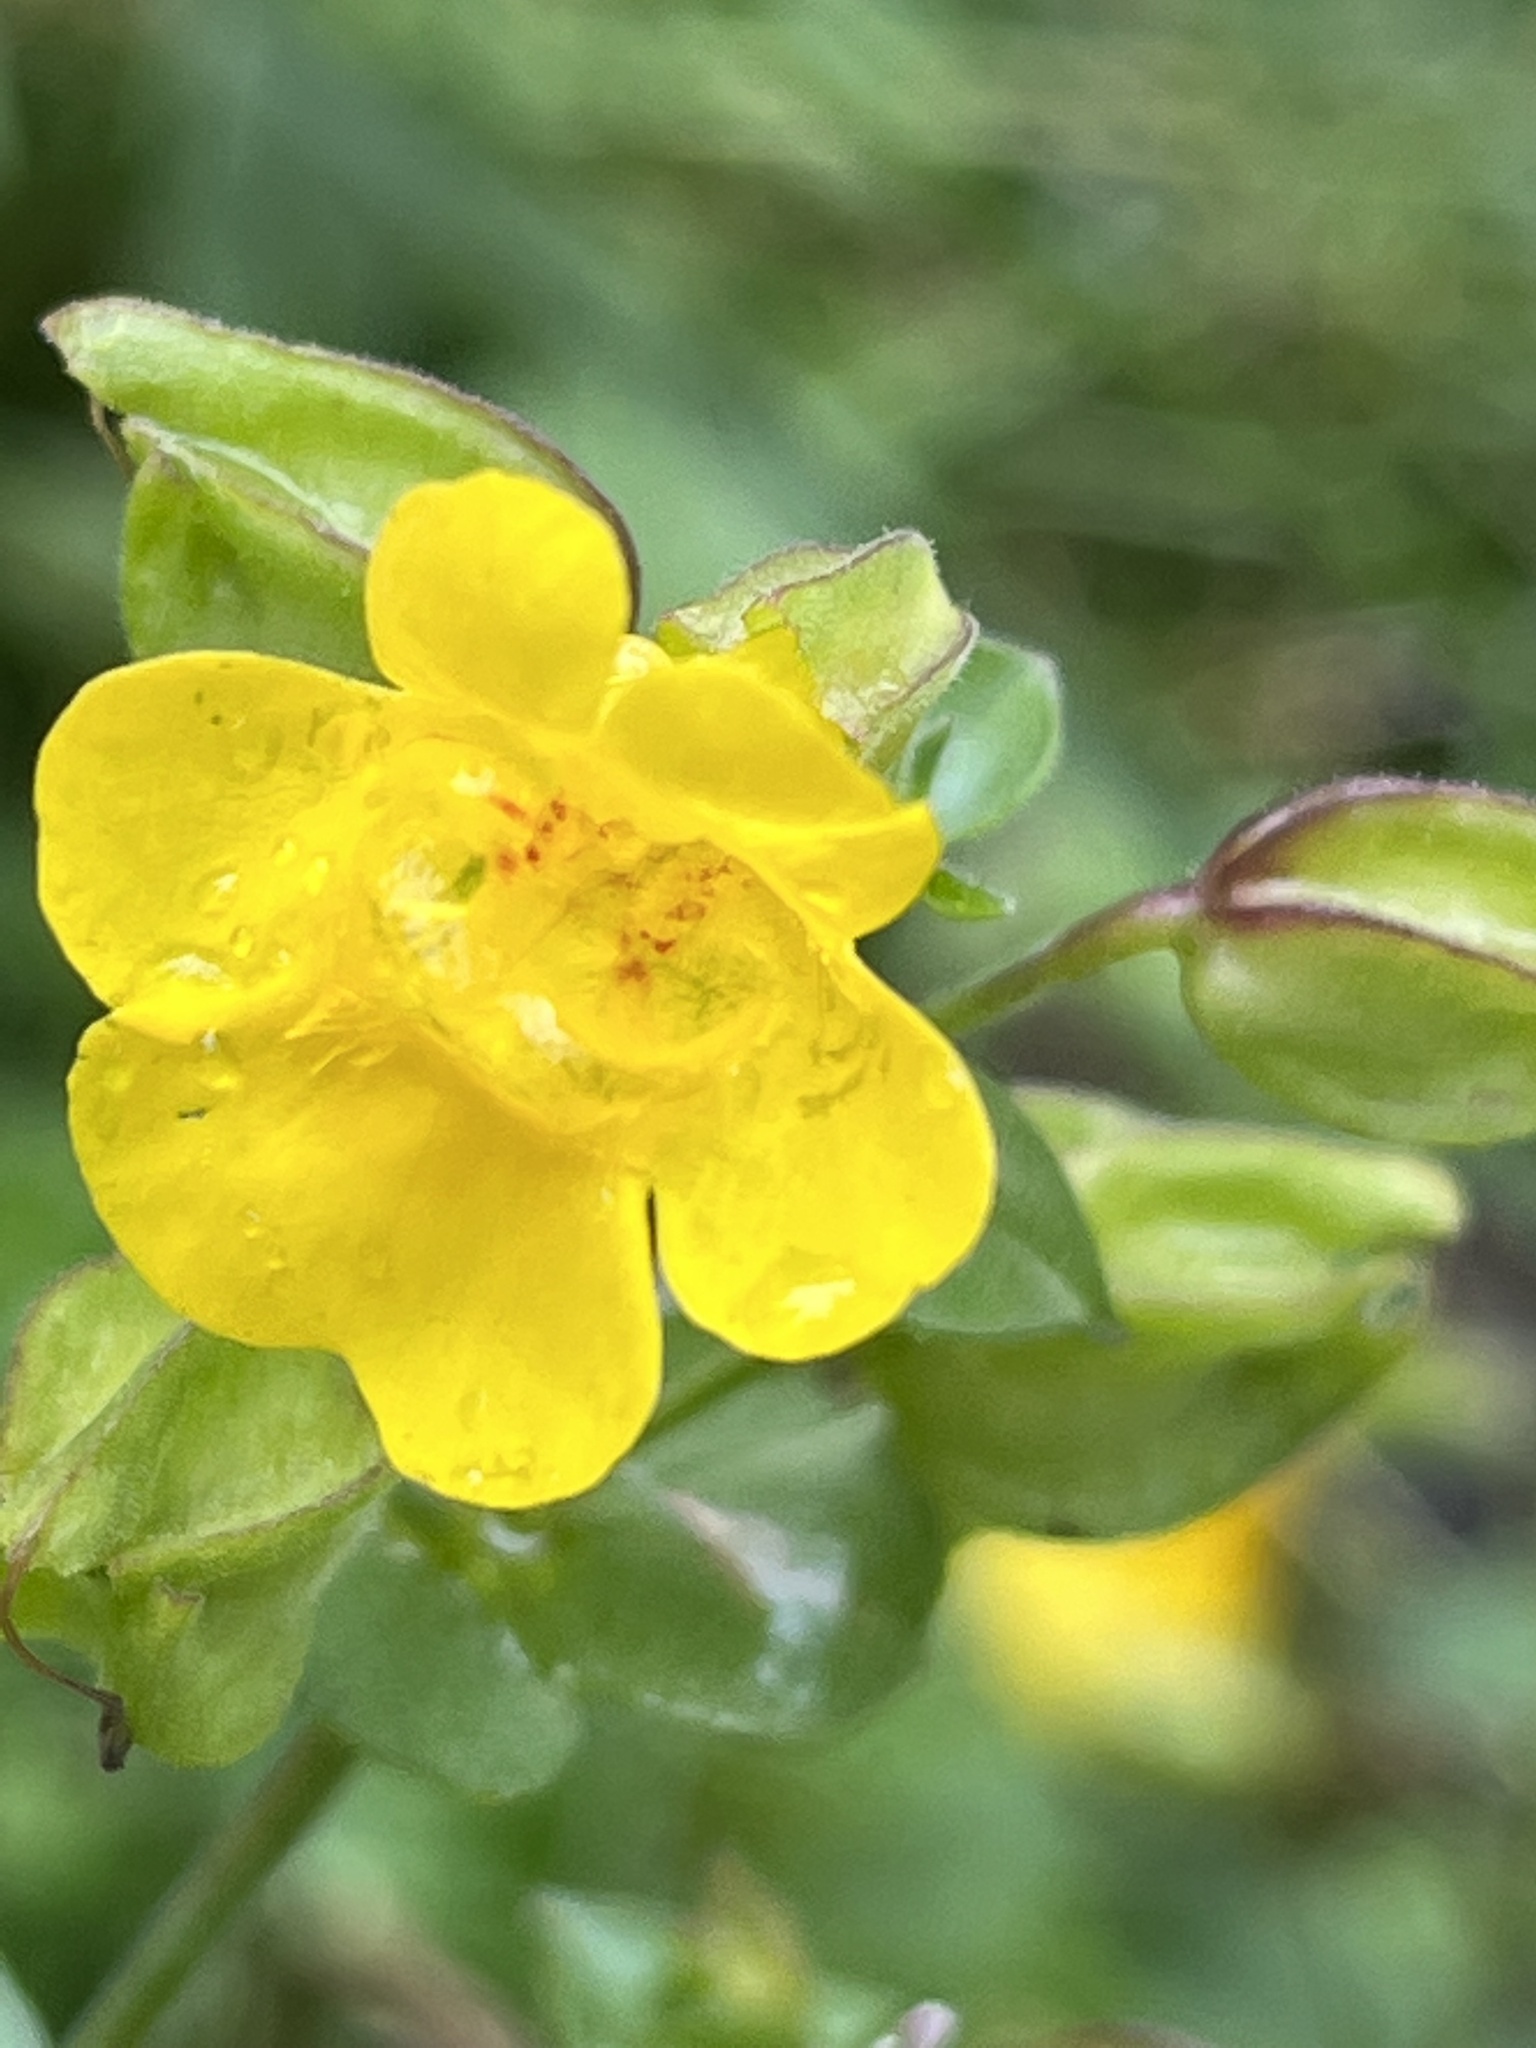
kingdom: Plantae
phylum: Tracheophyta
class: Magnoliopsida
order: Lamiales
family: Phrymaceae
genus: Erythranthe
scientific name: Erythranthe guttata
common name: Monkeyflower
